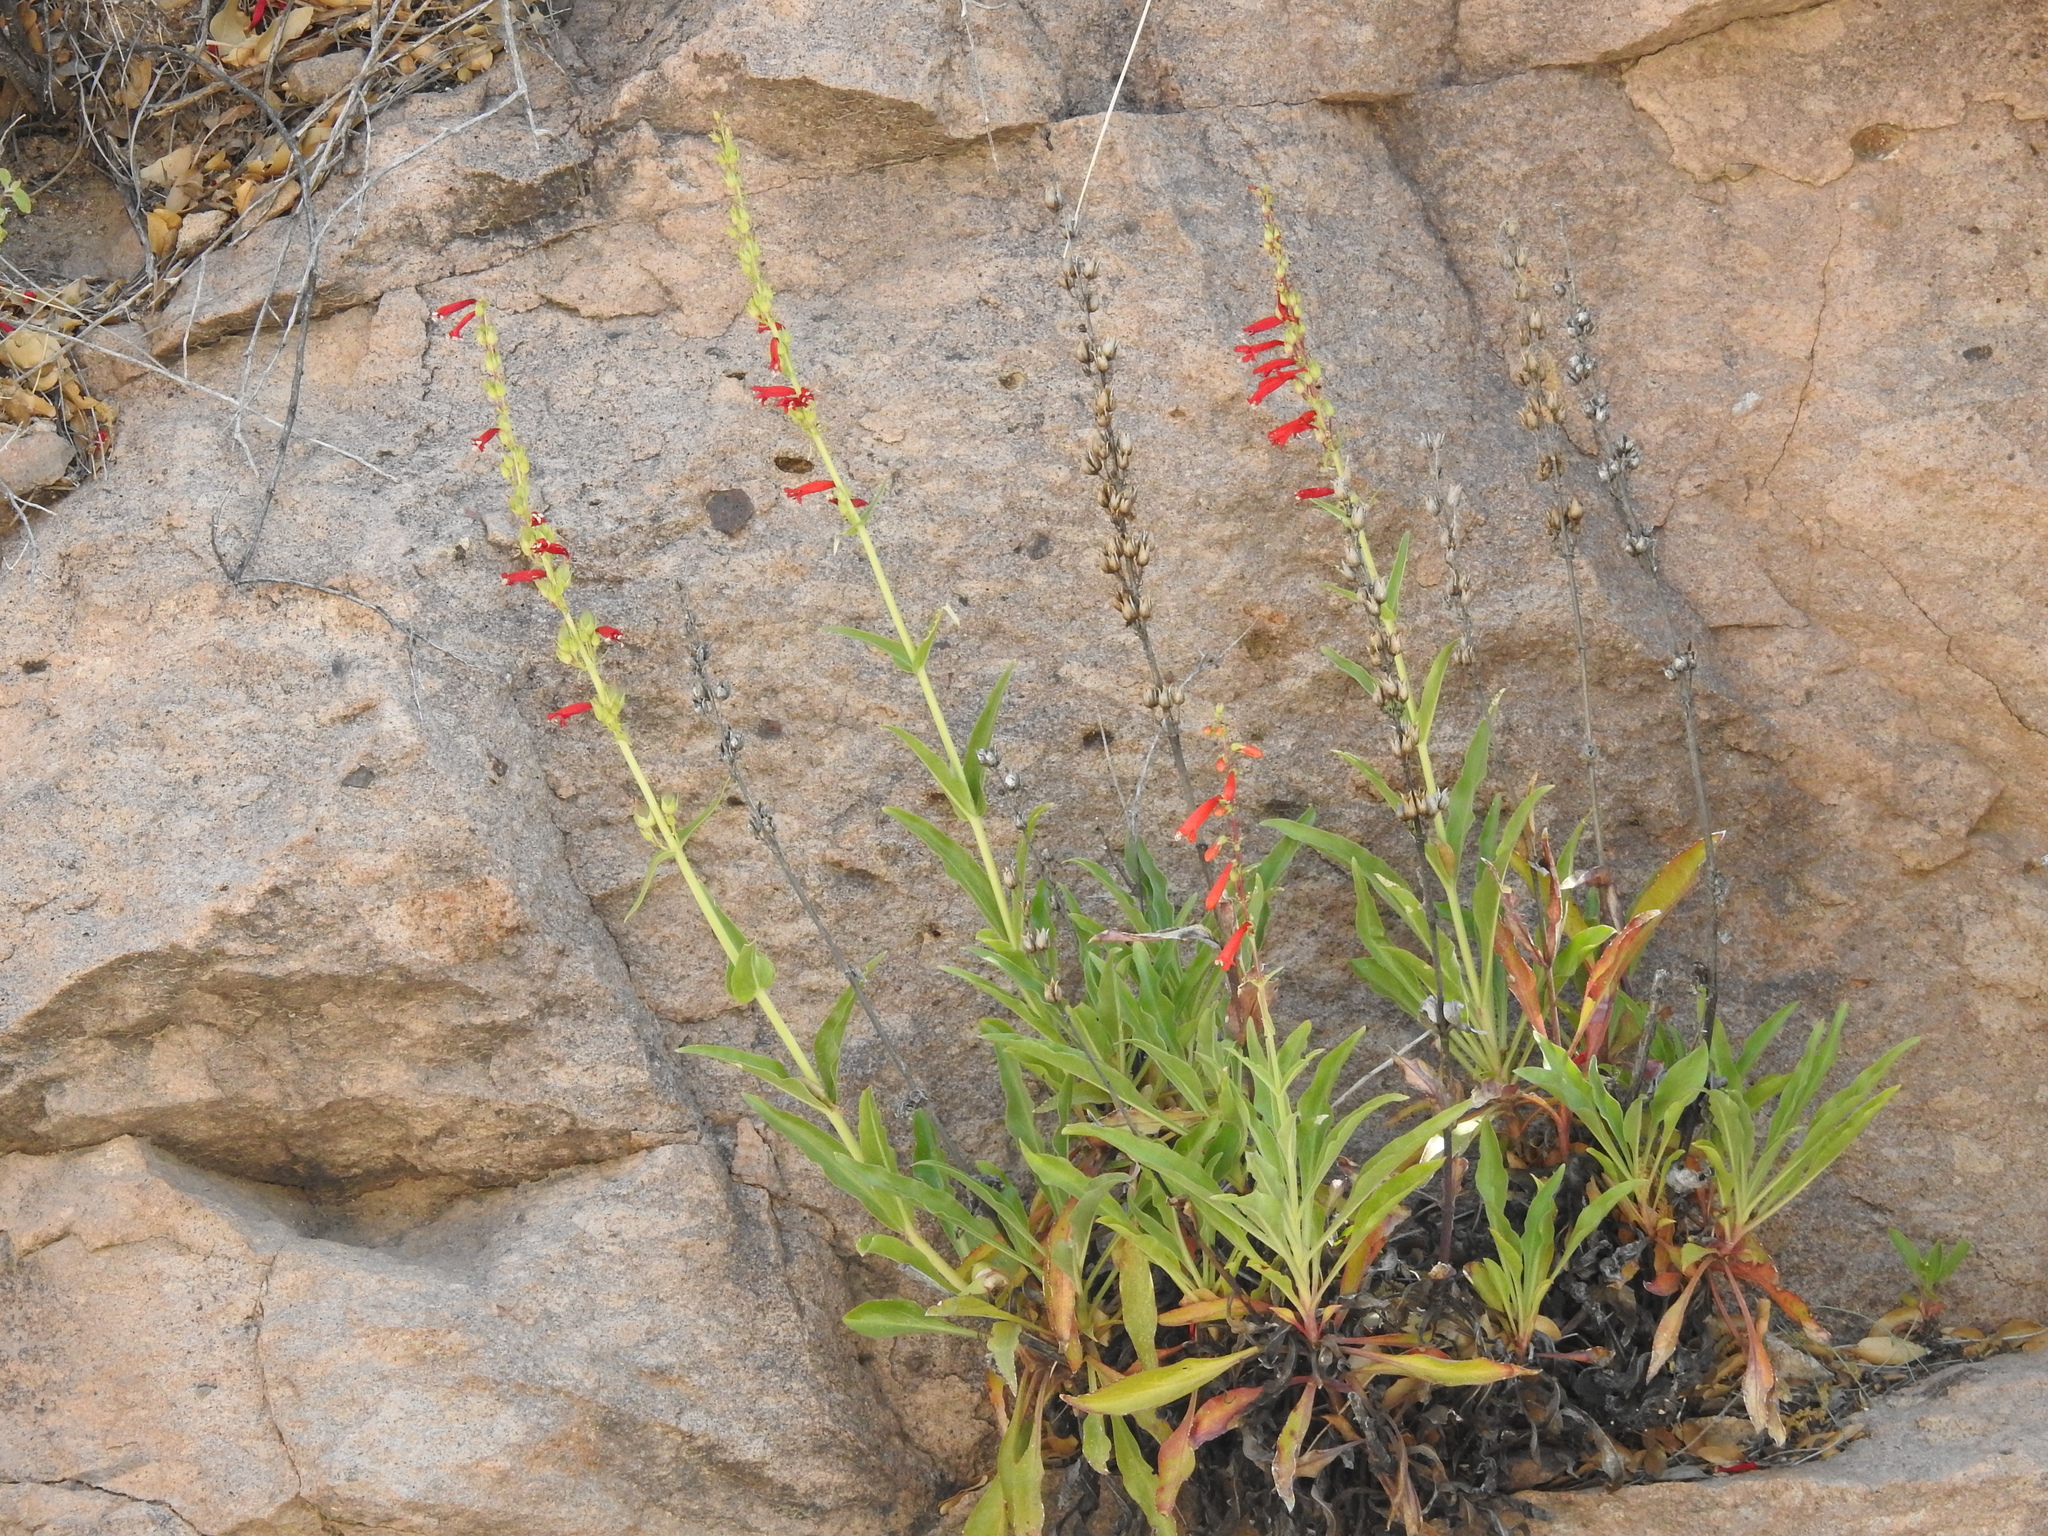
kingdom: Plantae
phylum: Tracheophyta
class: Magnoliopsida
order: Lamiales
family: Plantaginaceae
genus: Penstemon
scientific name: Penstemon eatonii
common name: Eaton's penstemon
